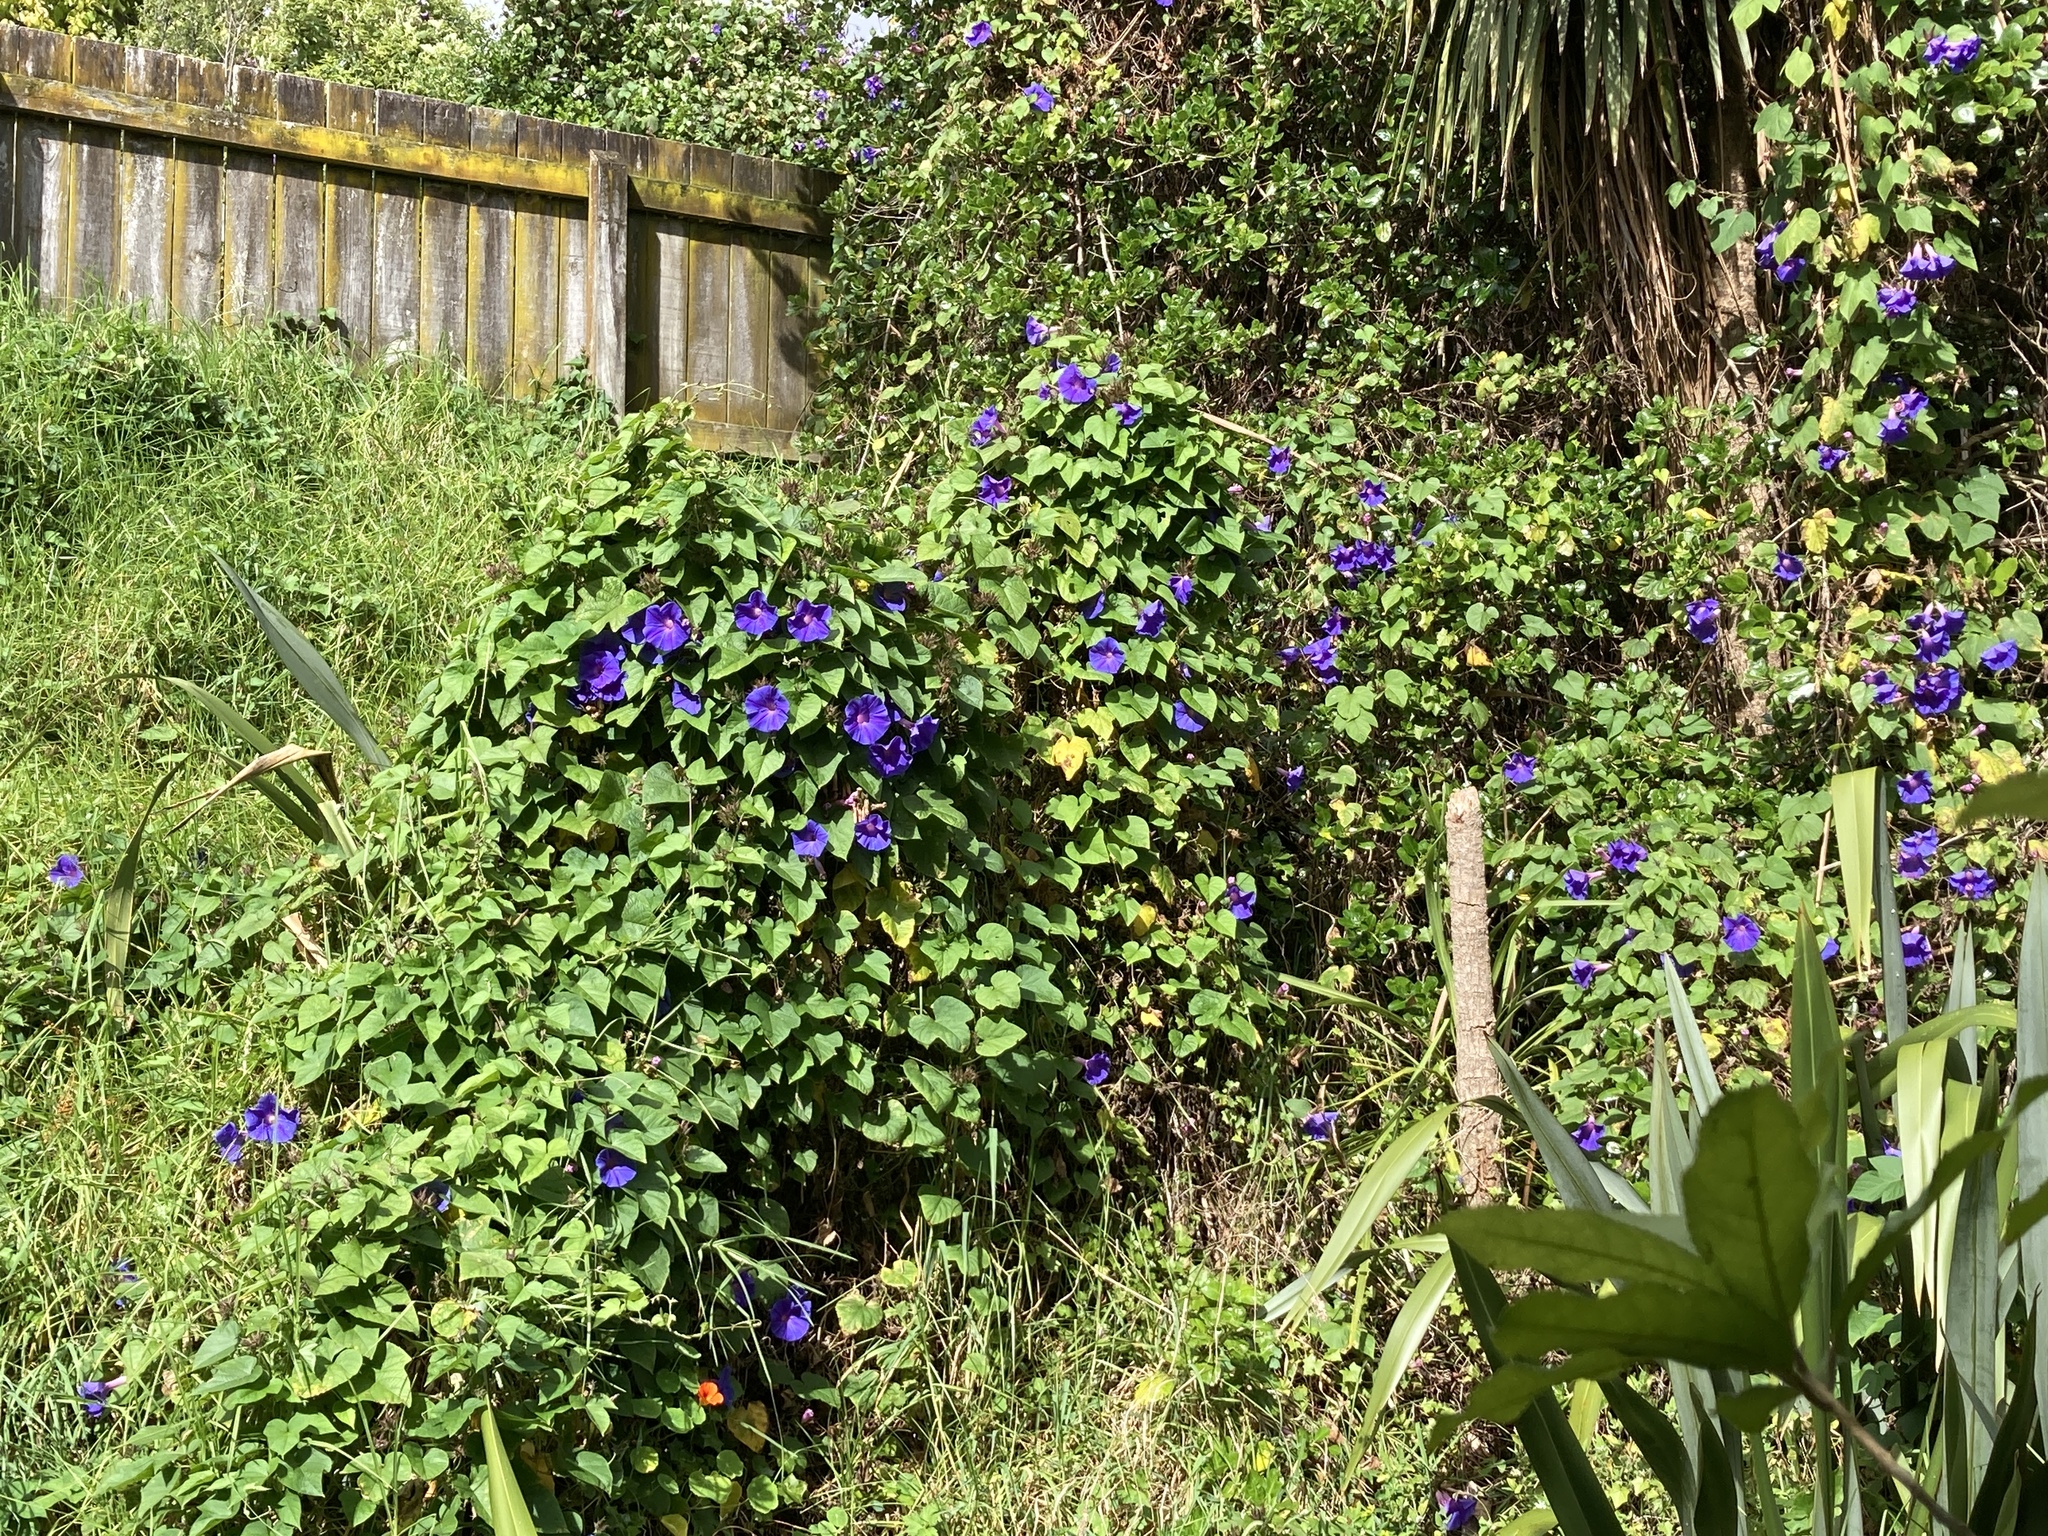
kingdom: Plantae
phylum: Tracheophyta
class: Magnoliopsida
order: Solanales
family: Convolvulaceae
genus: Ipomoea
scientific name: Ipomoea indica
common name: Blue dawnflower
